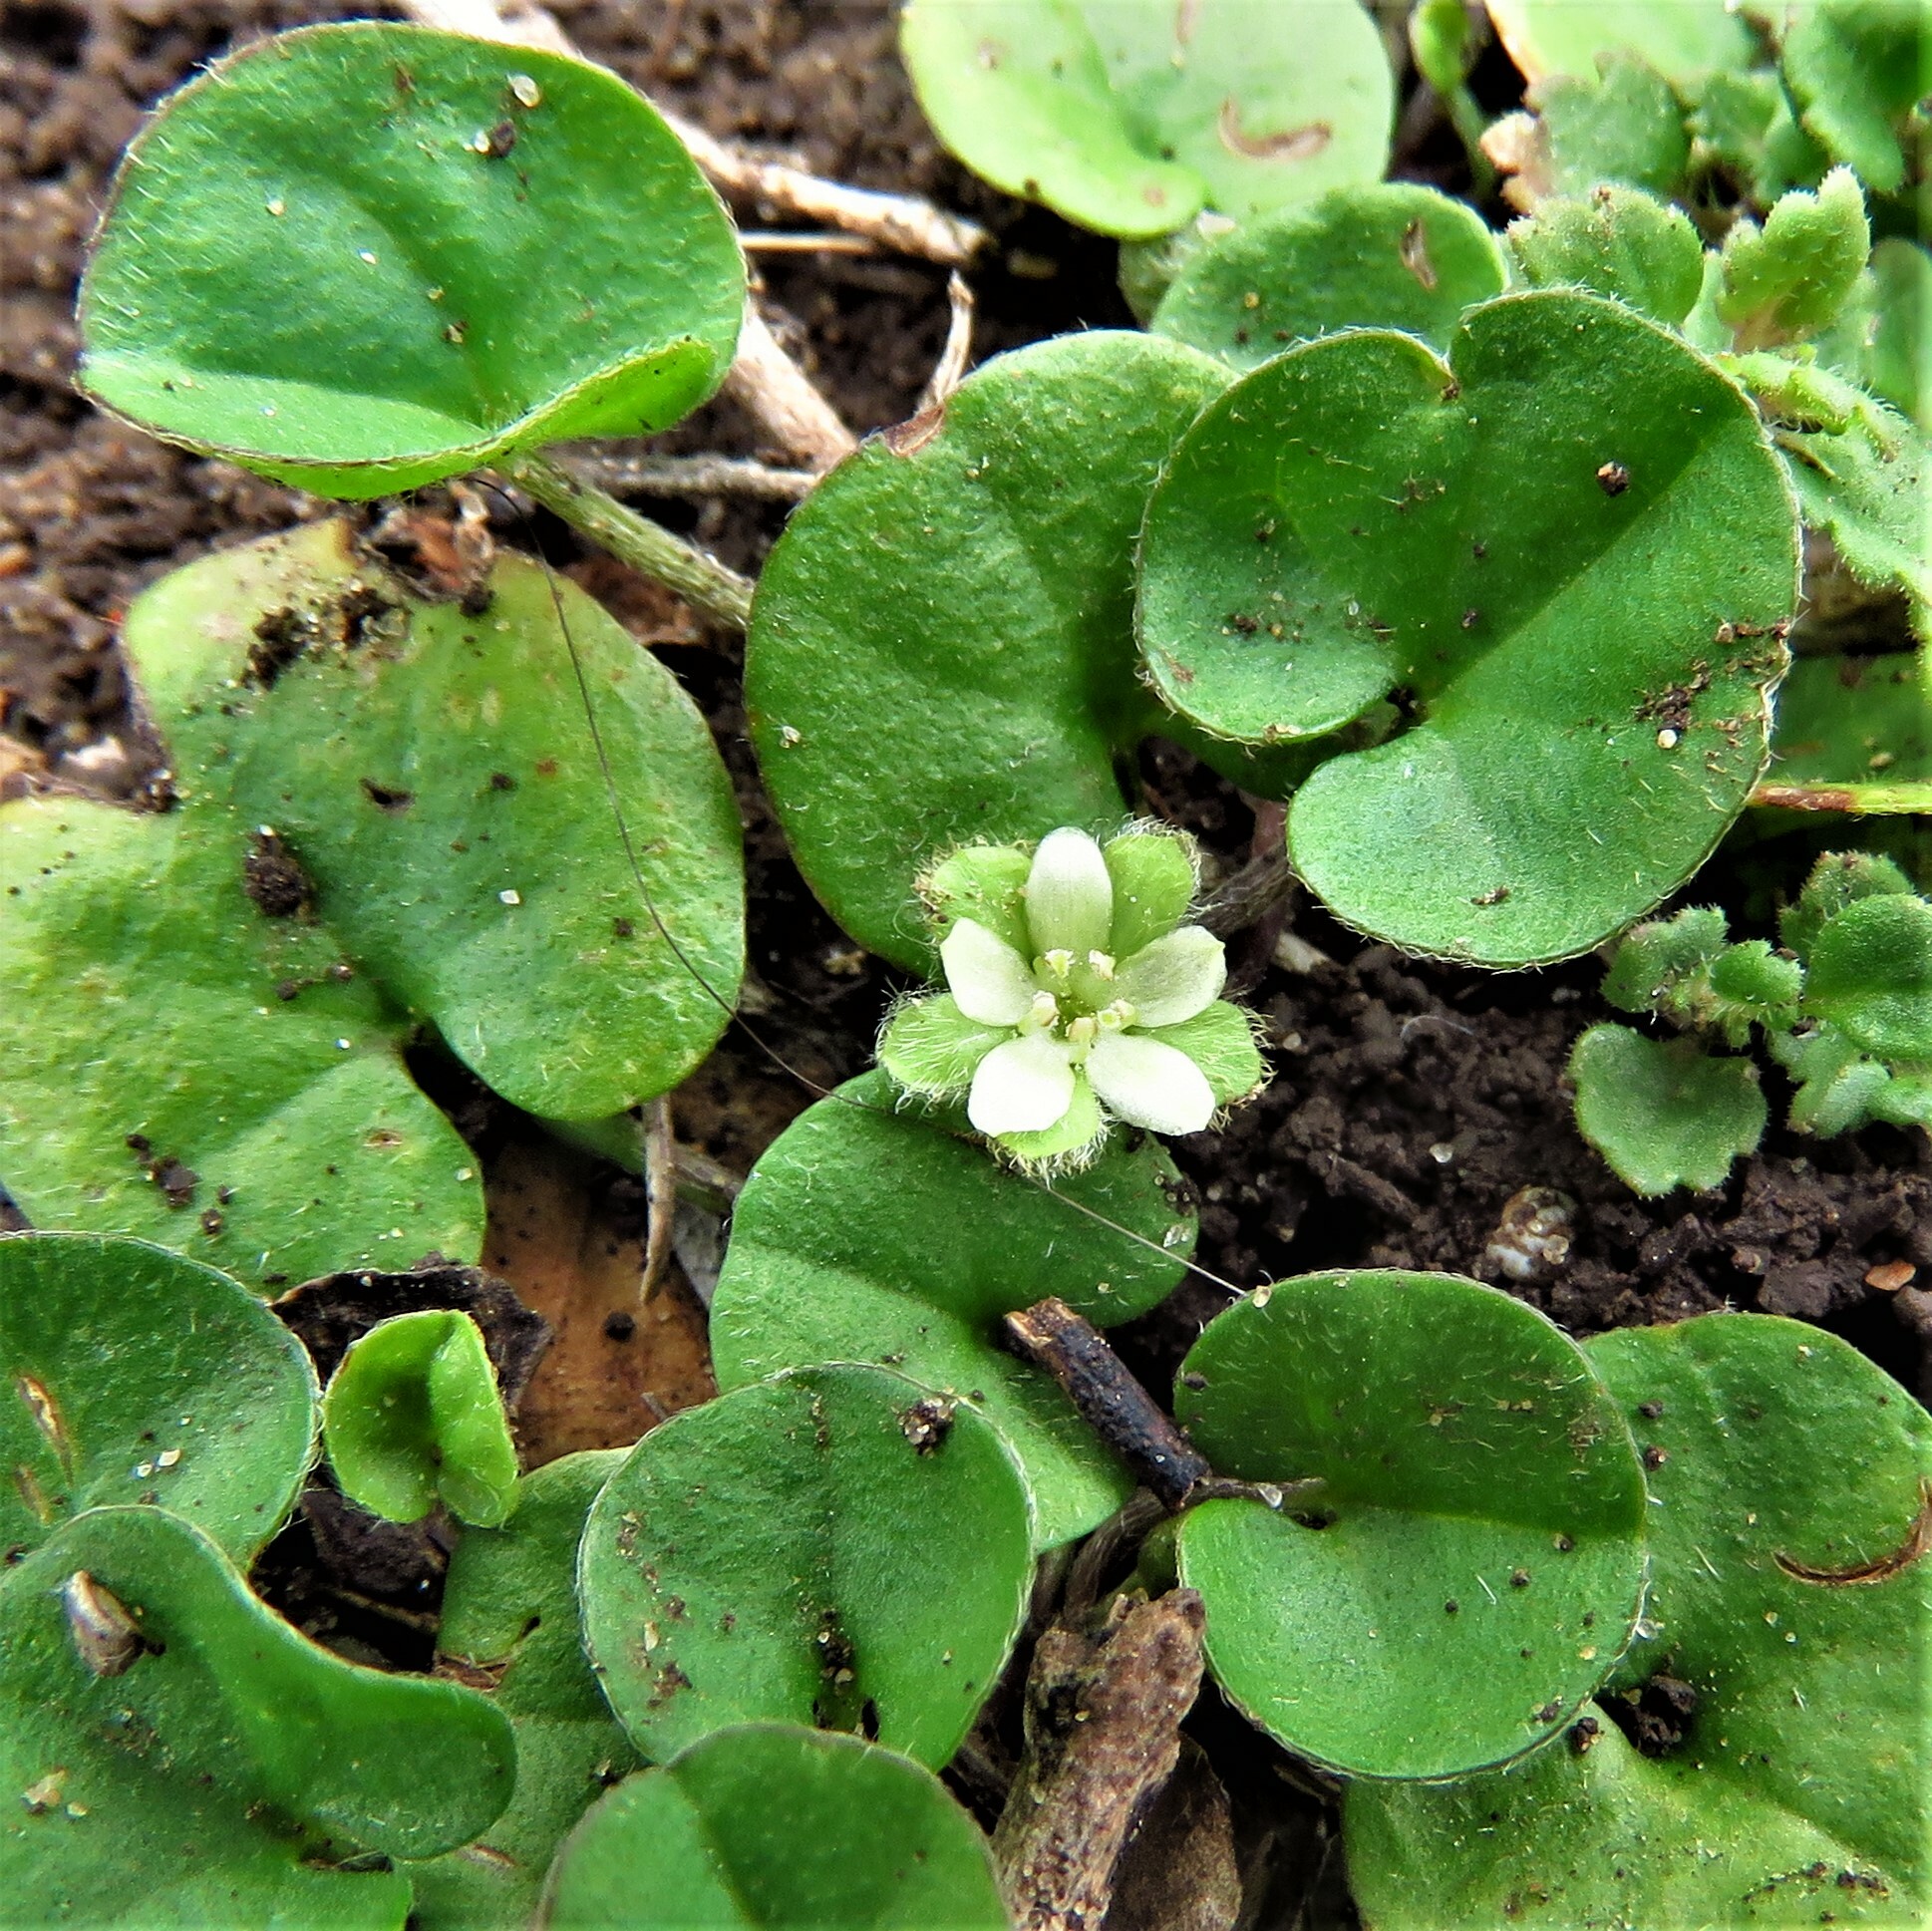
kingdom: Plantae
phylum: Tracheophyta
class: Magnoliopsida
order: Solanales
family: Convolvulaceae
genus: Dichondra
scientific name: Dichondra carolinensis
